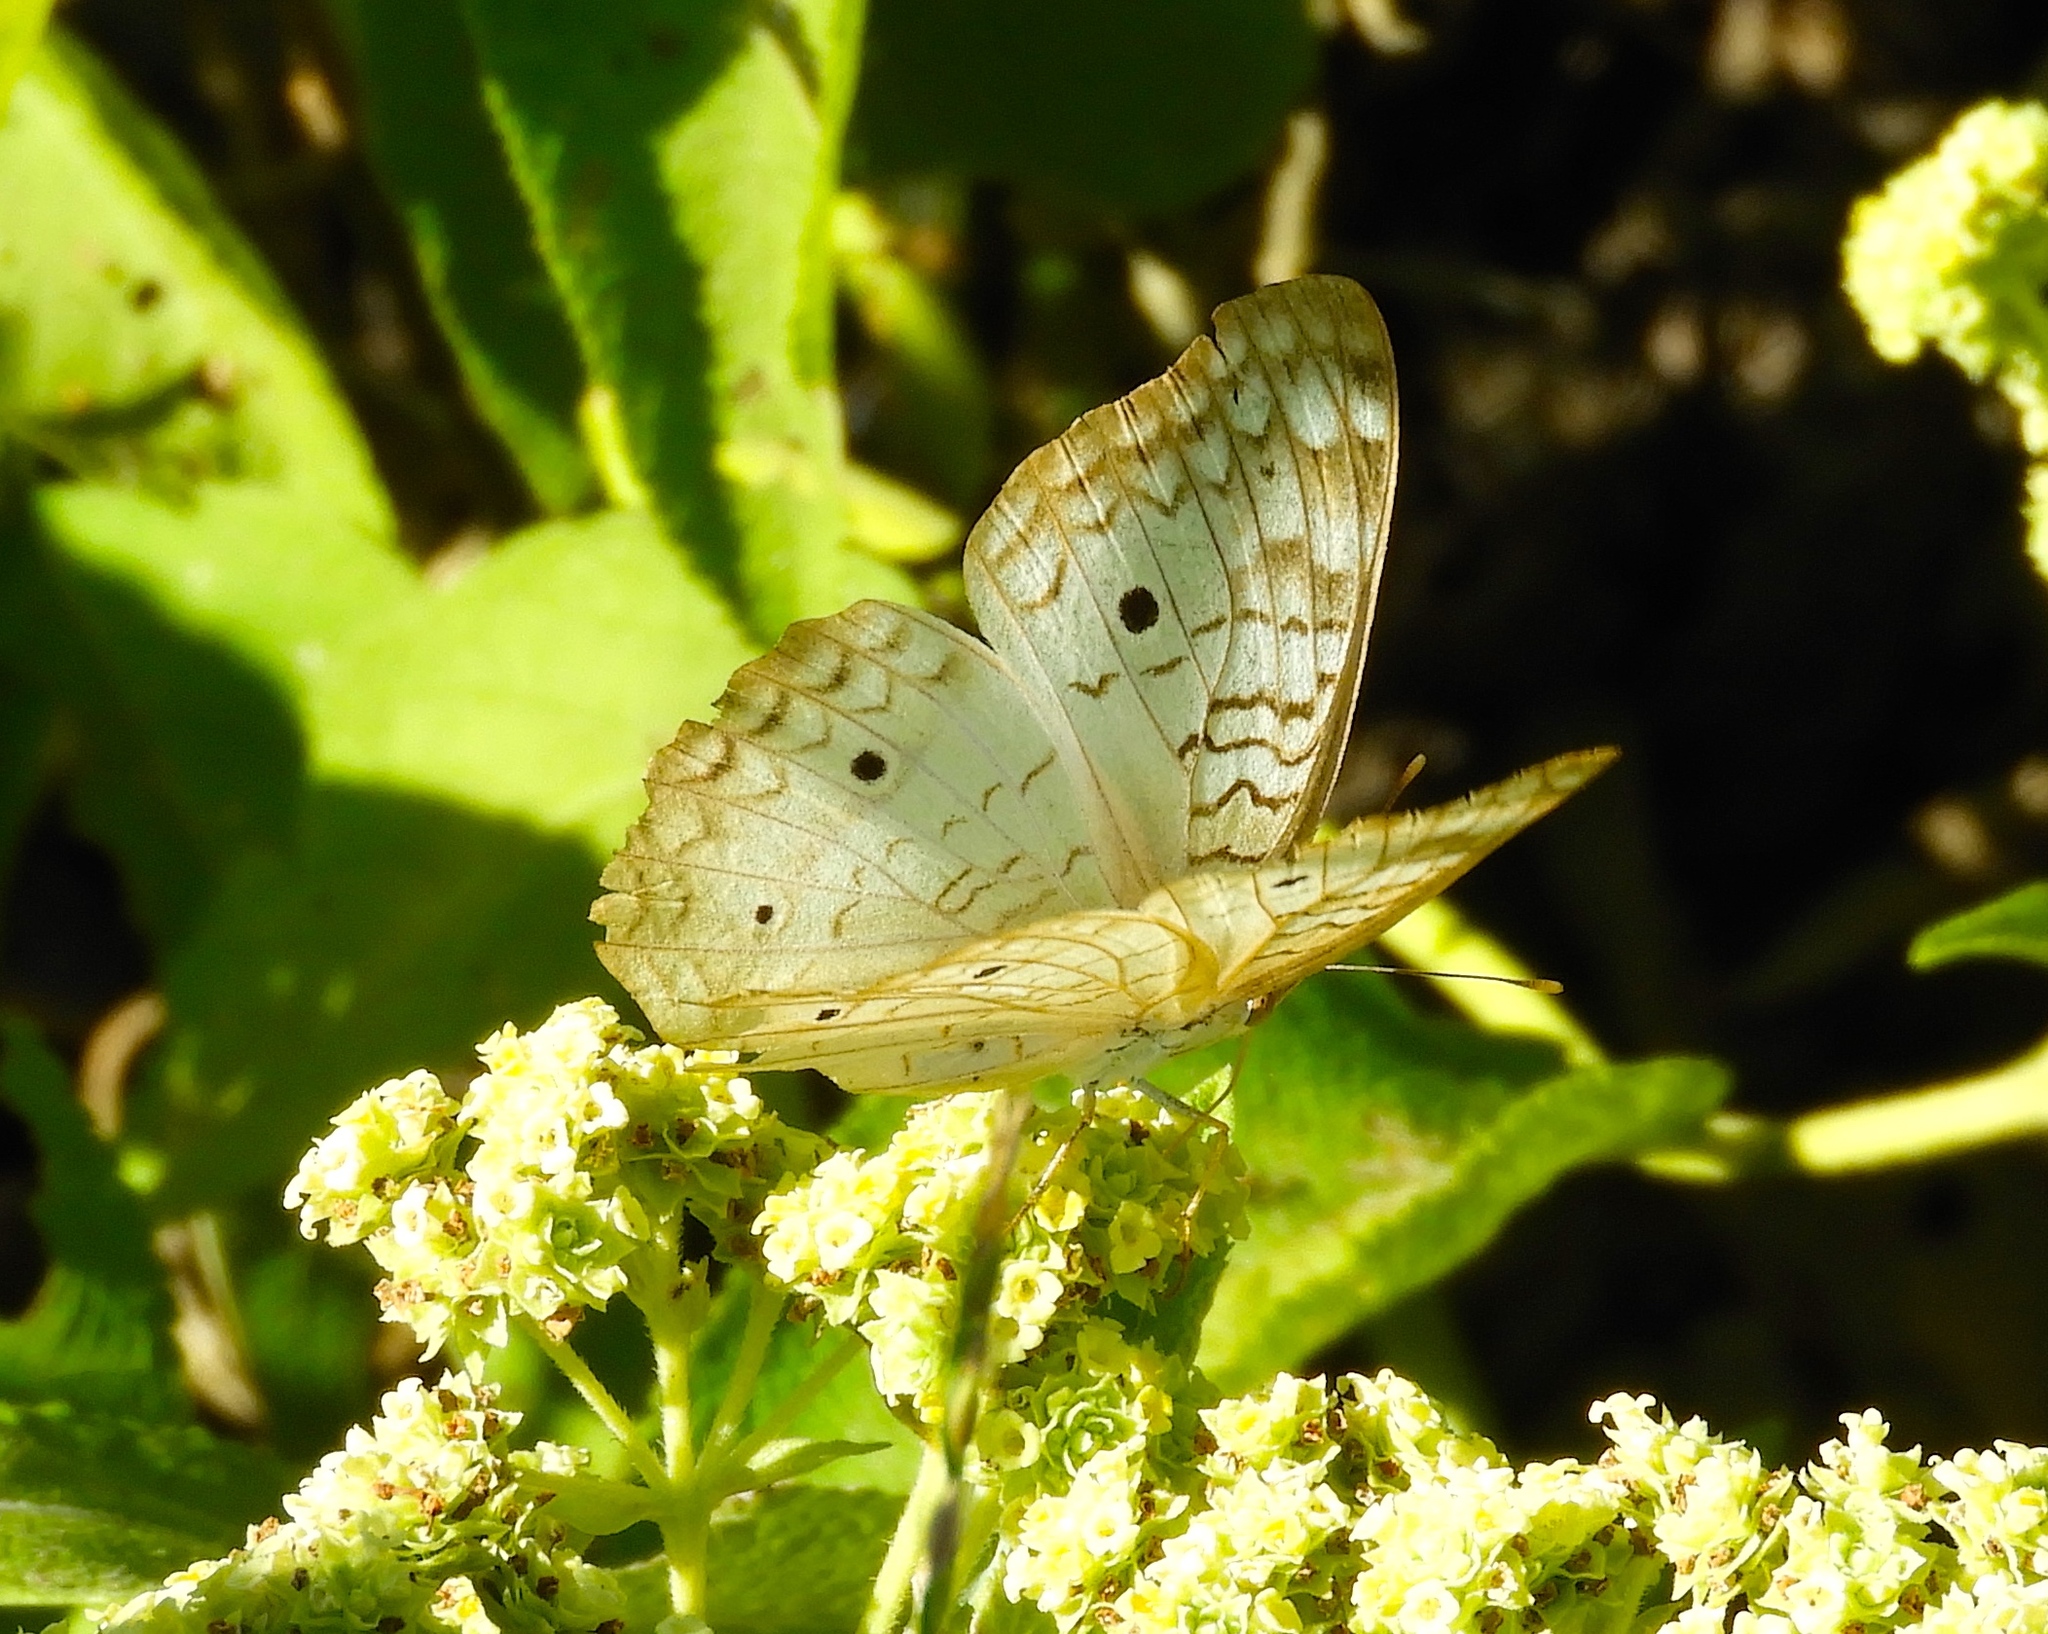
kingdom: Animalia
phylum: Arthropoda
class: Insecta
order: Lepidoptera
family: Nymphalidae
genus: Anartia
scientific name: Anartia jatrophae
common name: White peacock
